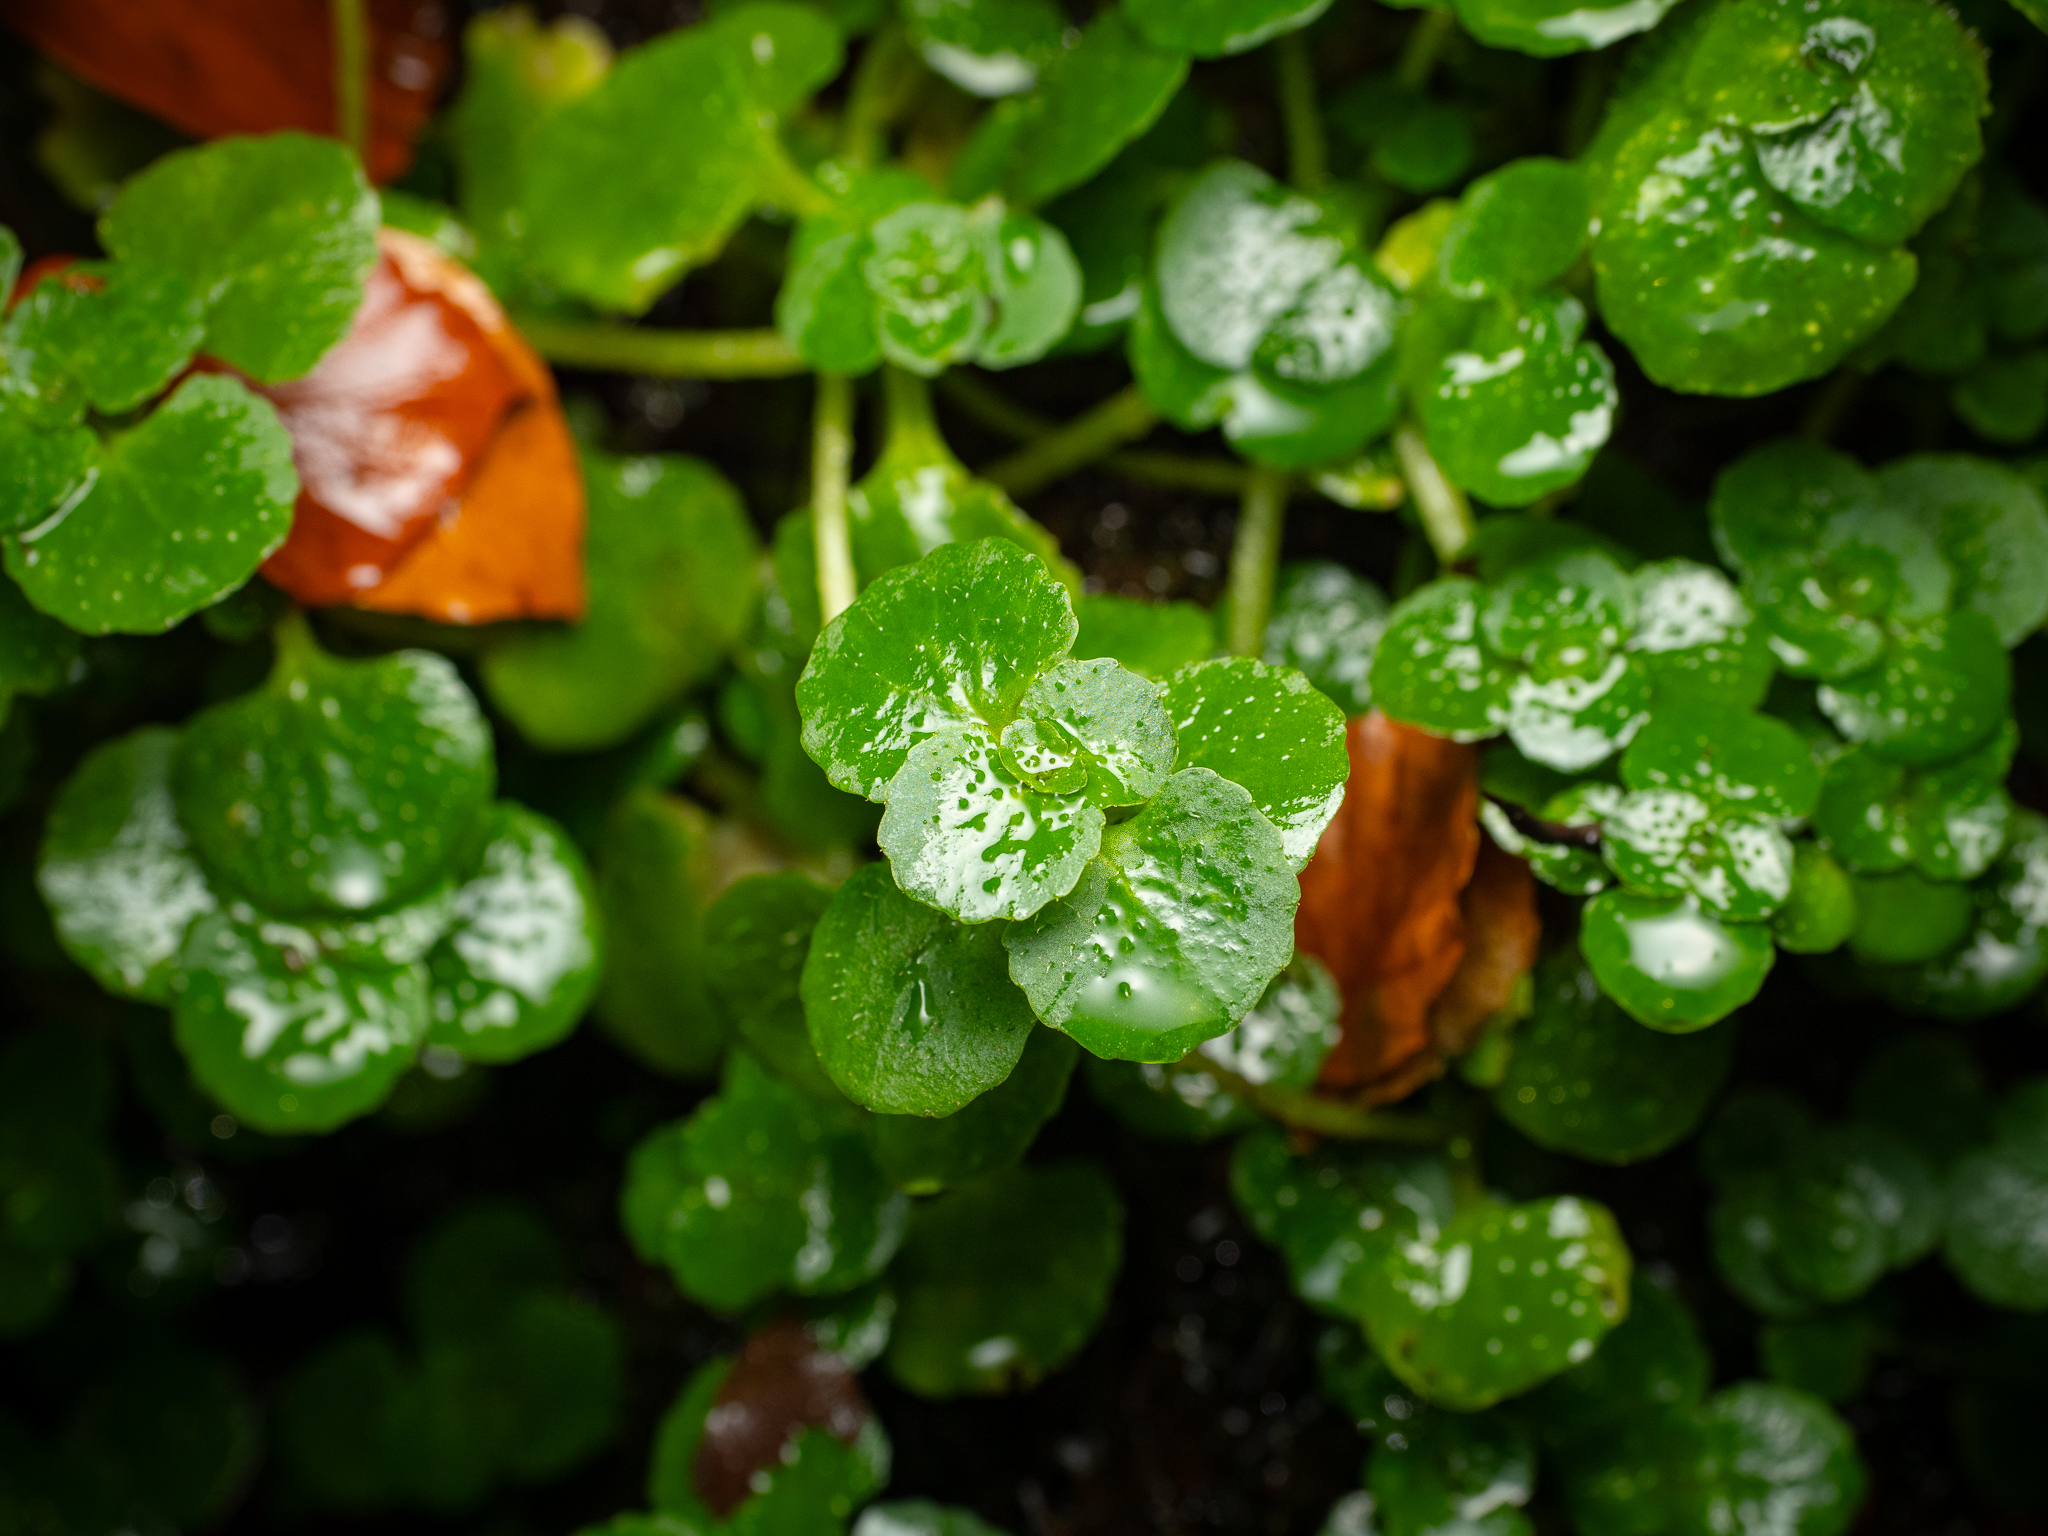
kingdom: Plantae
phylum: Tracheophyta
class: Magnoliopsida
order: Saxifragales
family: Saxifragaceae
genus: Chrysosplenium
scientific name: Chrysosplenium oppositifolium
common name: Opposite-leaved golden-saxifrage
